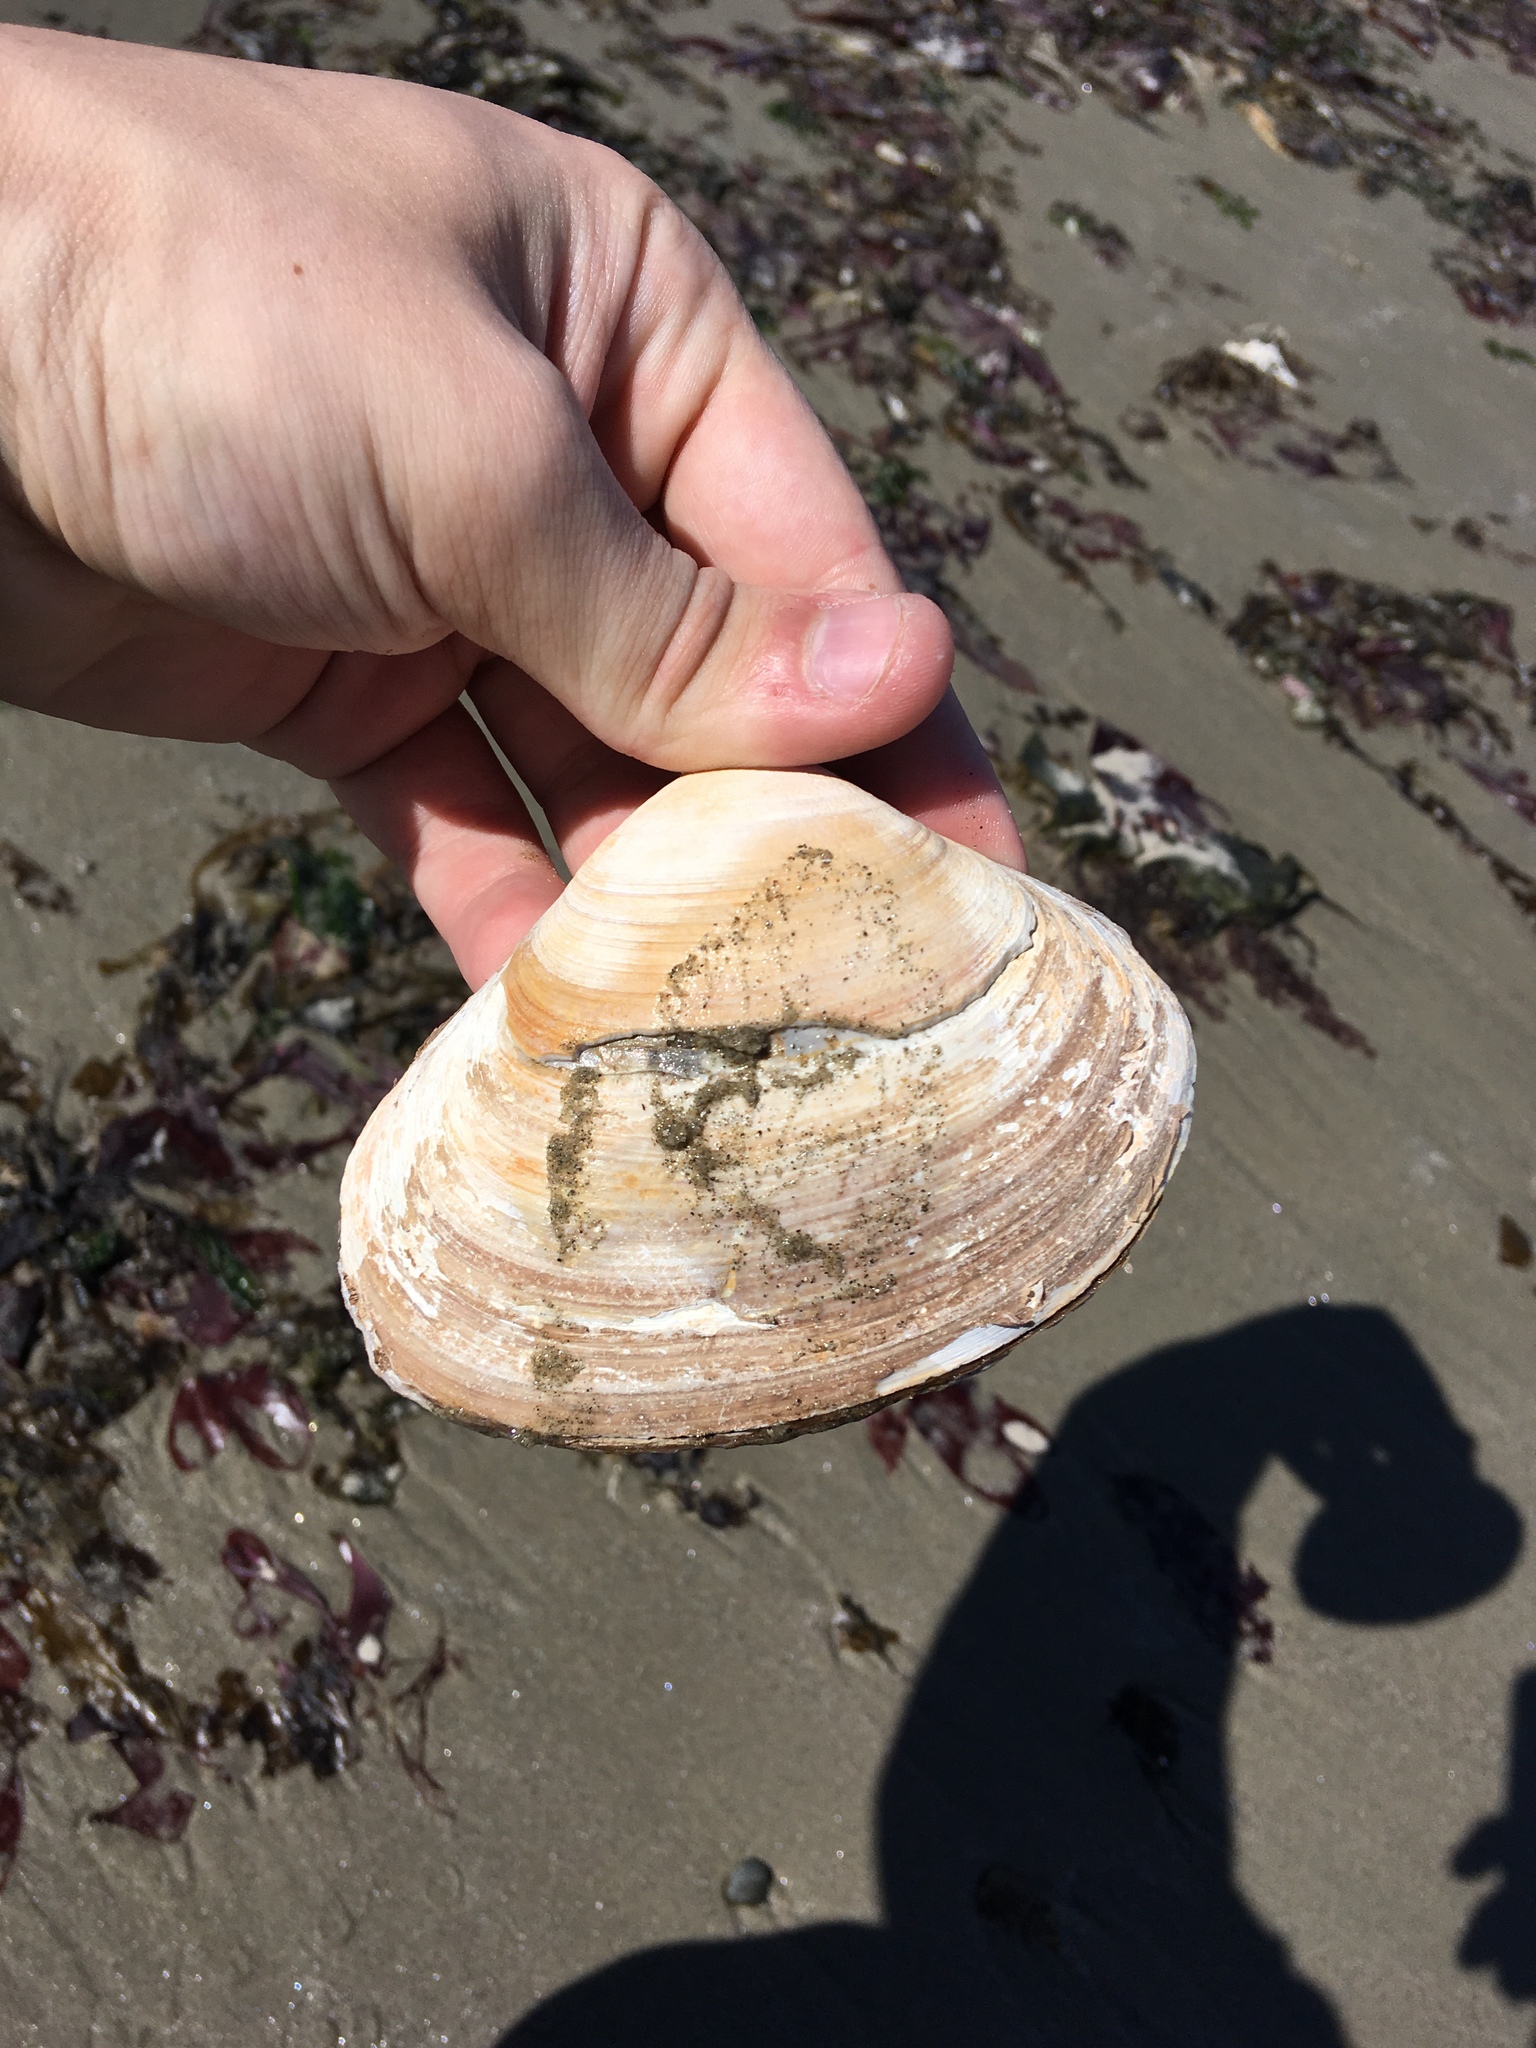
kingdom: Animalia
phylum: Mollusca
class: Bivalvia
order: Venerida
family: Mactridae
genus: Spisula
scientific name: Spisula solidissima
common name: Atlantic surf clam
